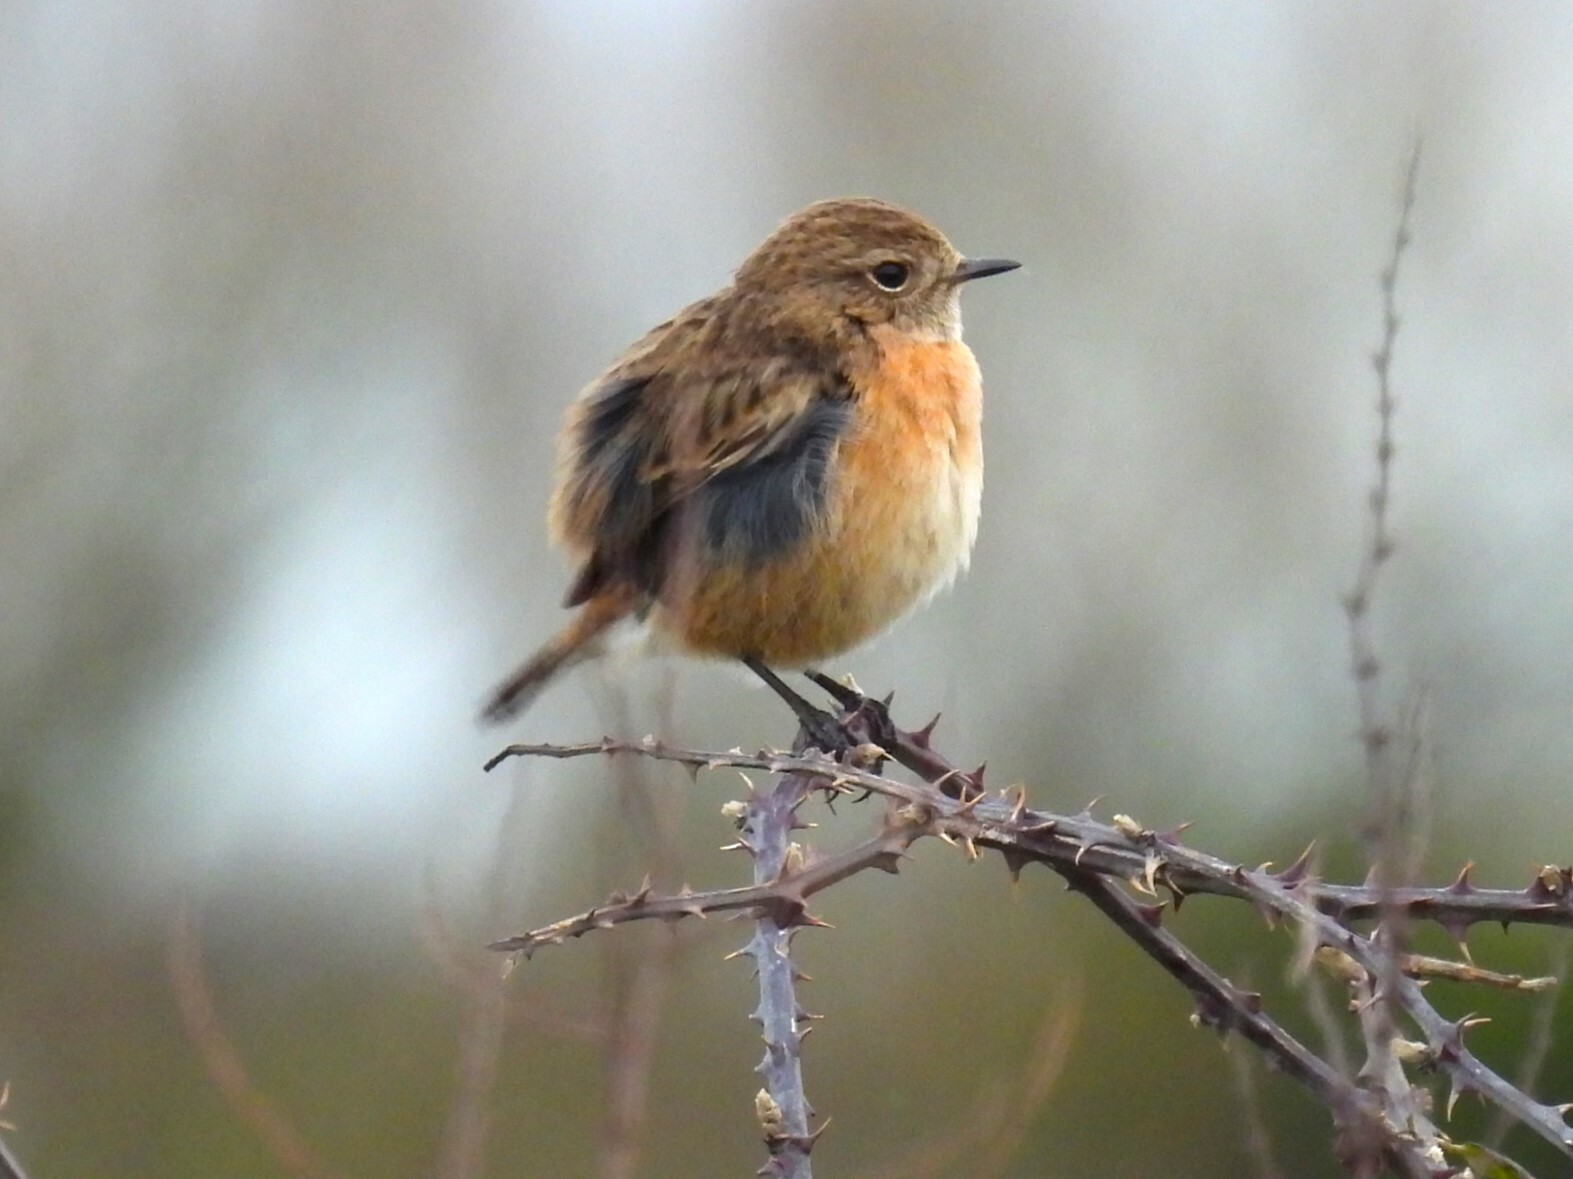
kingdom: Animalia
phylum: Chordata
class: Aves
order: Passeriformes
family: Muscicapidae
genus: Saxicola
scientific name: Saxicola rubicola
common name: European stonechat
